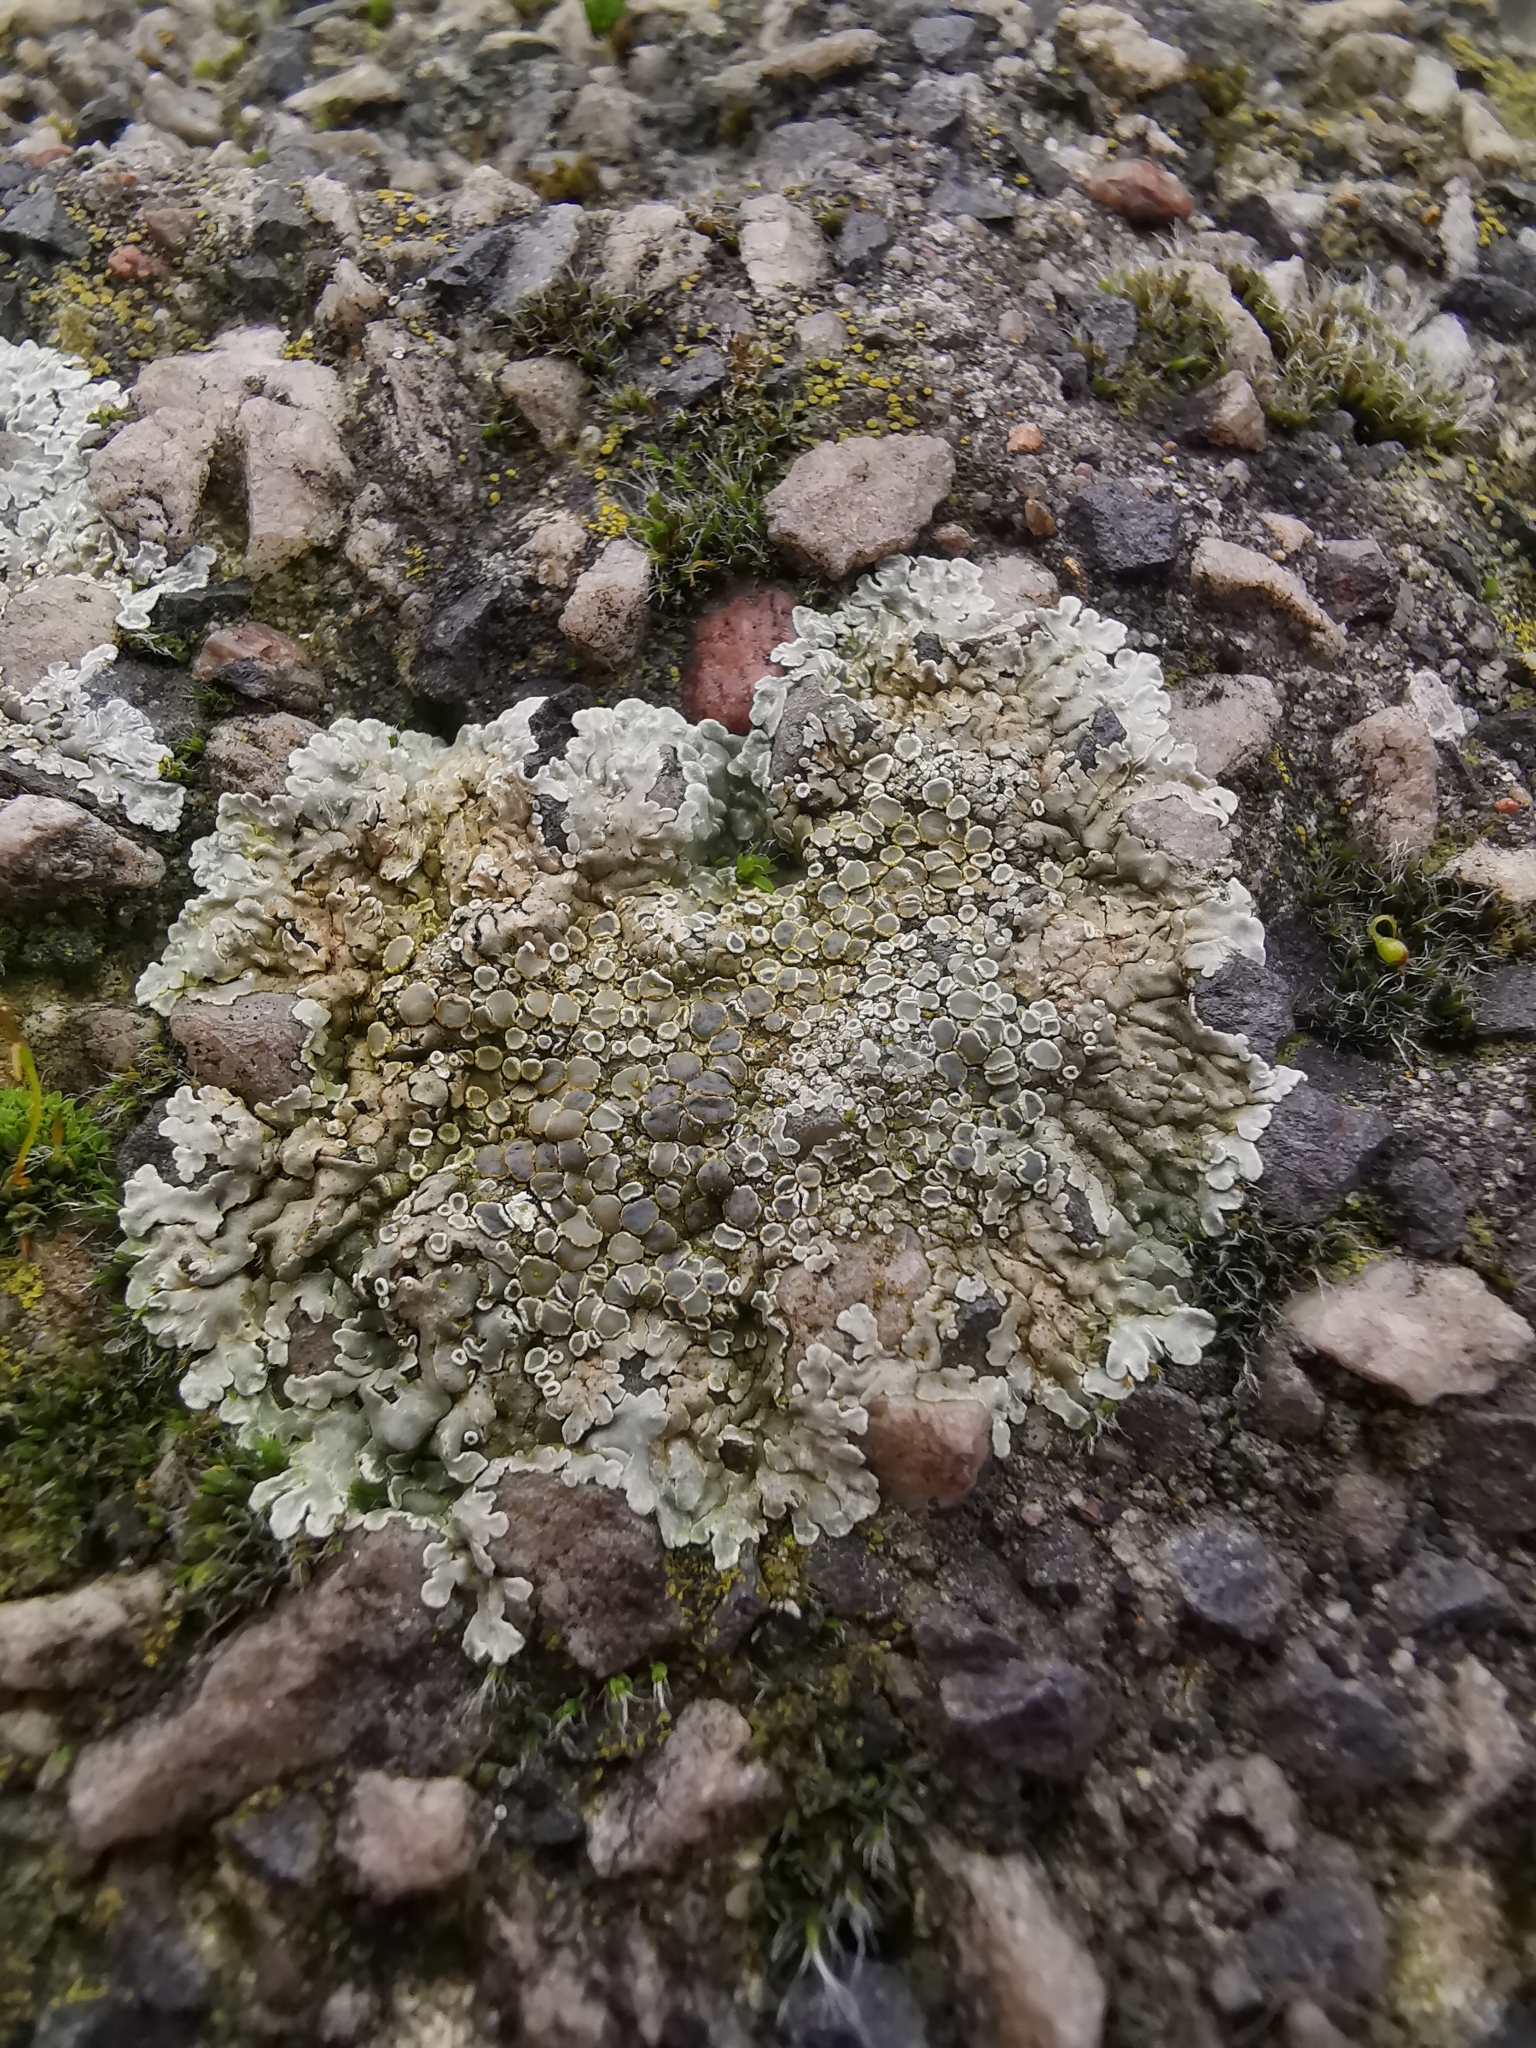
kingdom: Fungi
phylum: Ascomycota
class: Lecanoromycetes
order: Lecanorales
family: Lecanoraceae
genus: Protoparmeliopsis
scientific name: Protoparmeliopsis muralis
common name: Stonewall rim lichen
